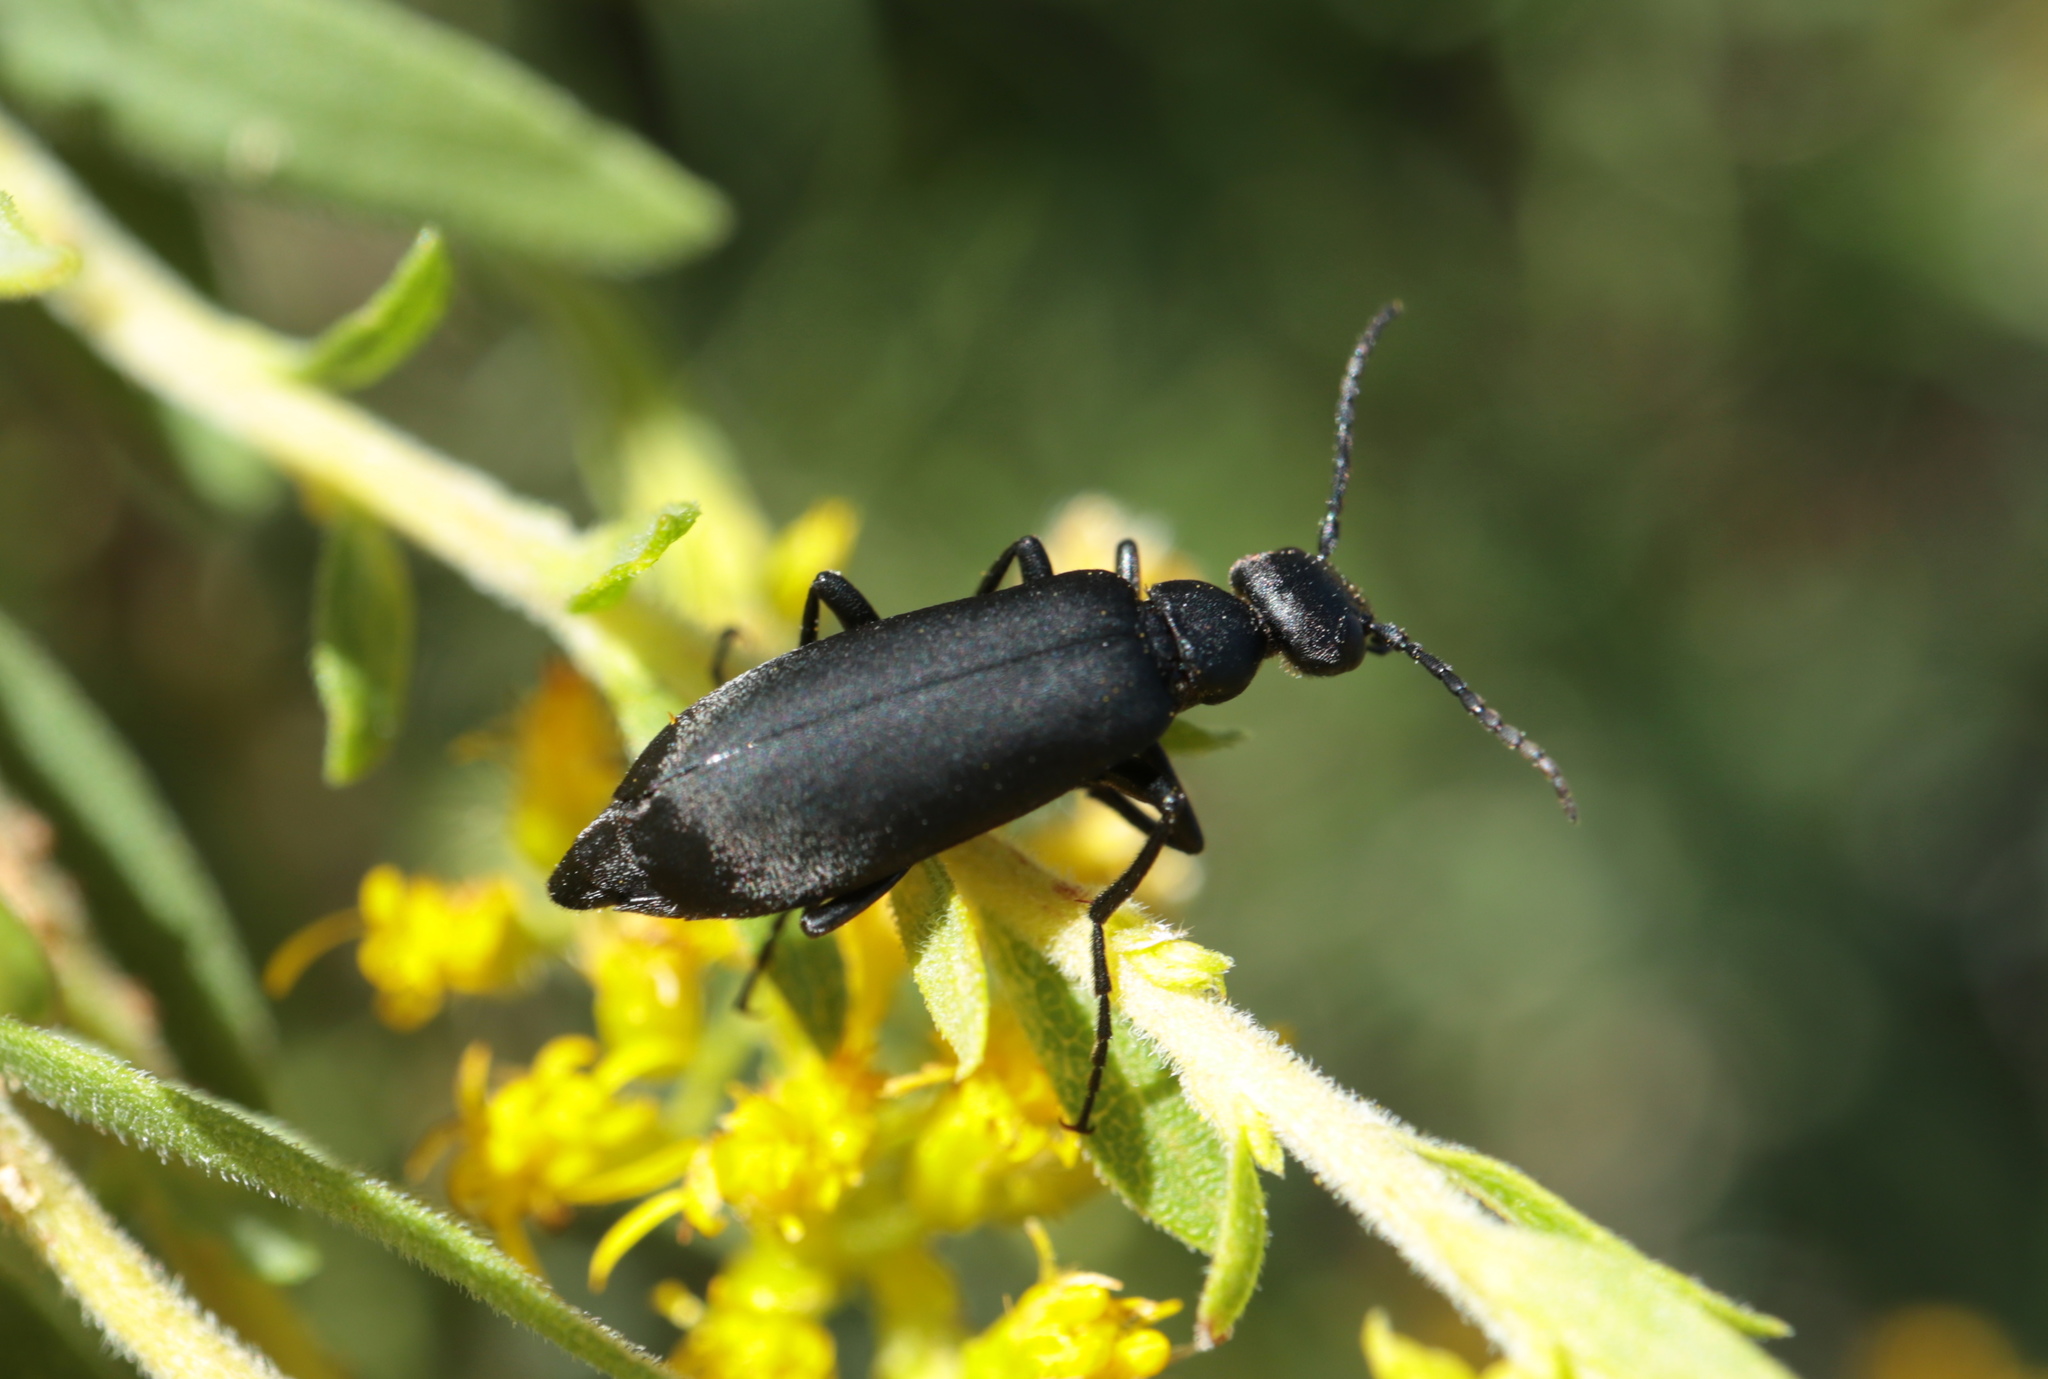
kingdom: Animalia
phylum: Arthropoda
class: Insecta
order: Coleoptera
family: Meloidae
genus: Epicauta
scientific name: Epicauta pensylvanica
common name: Black blister beetle
